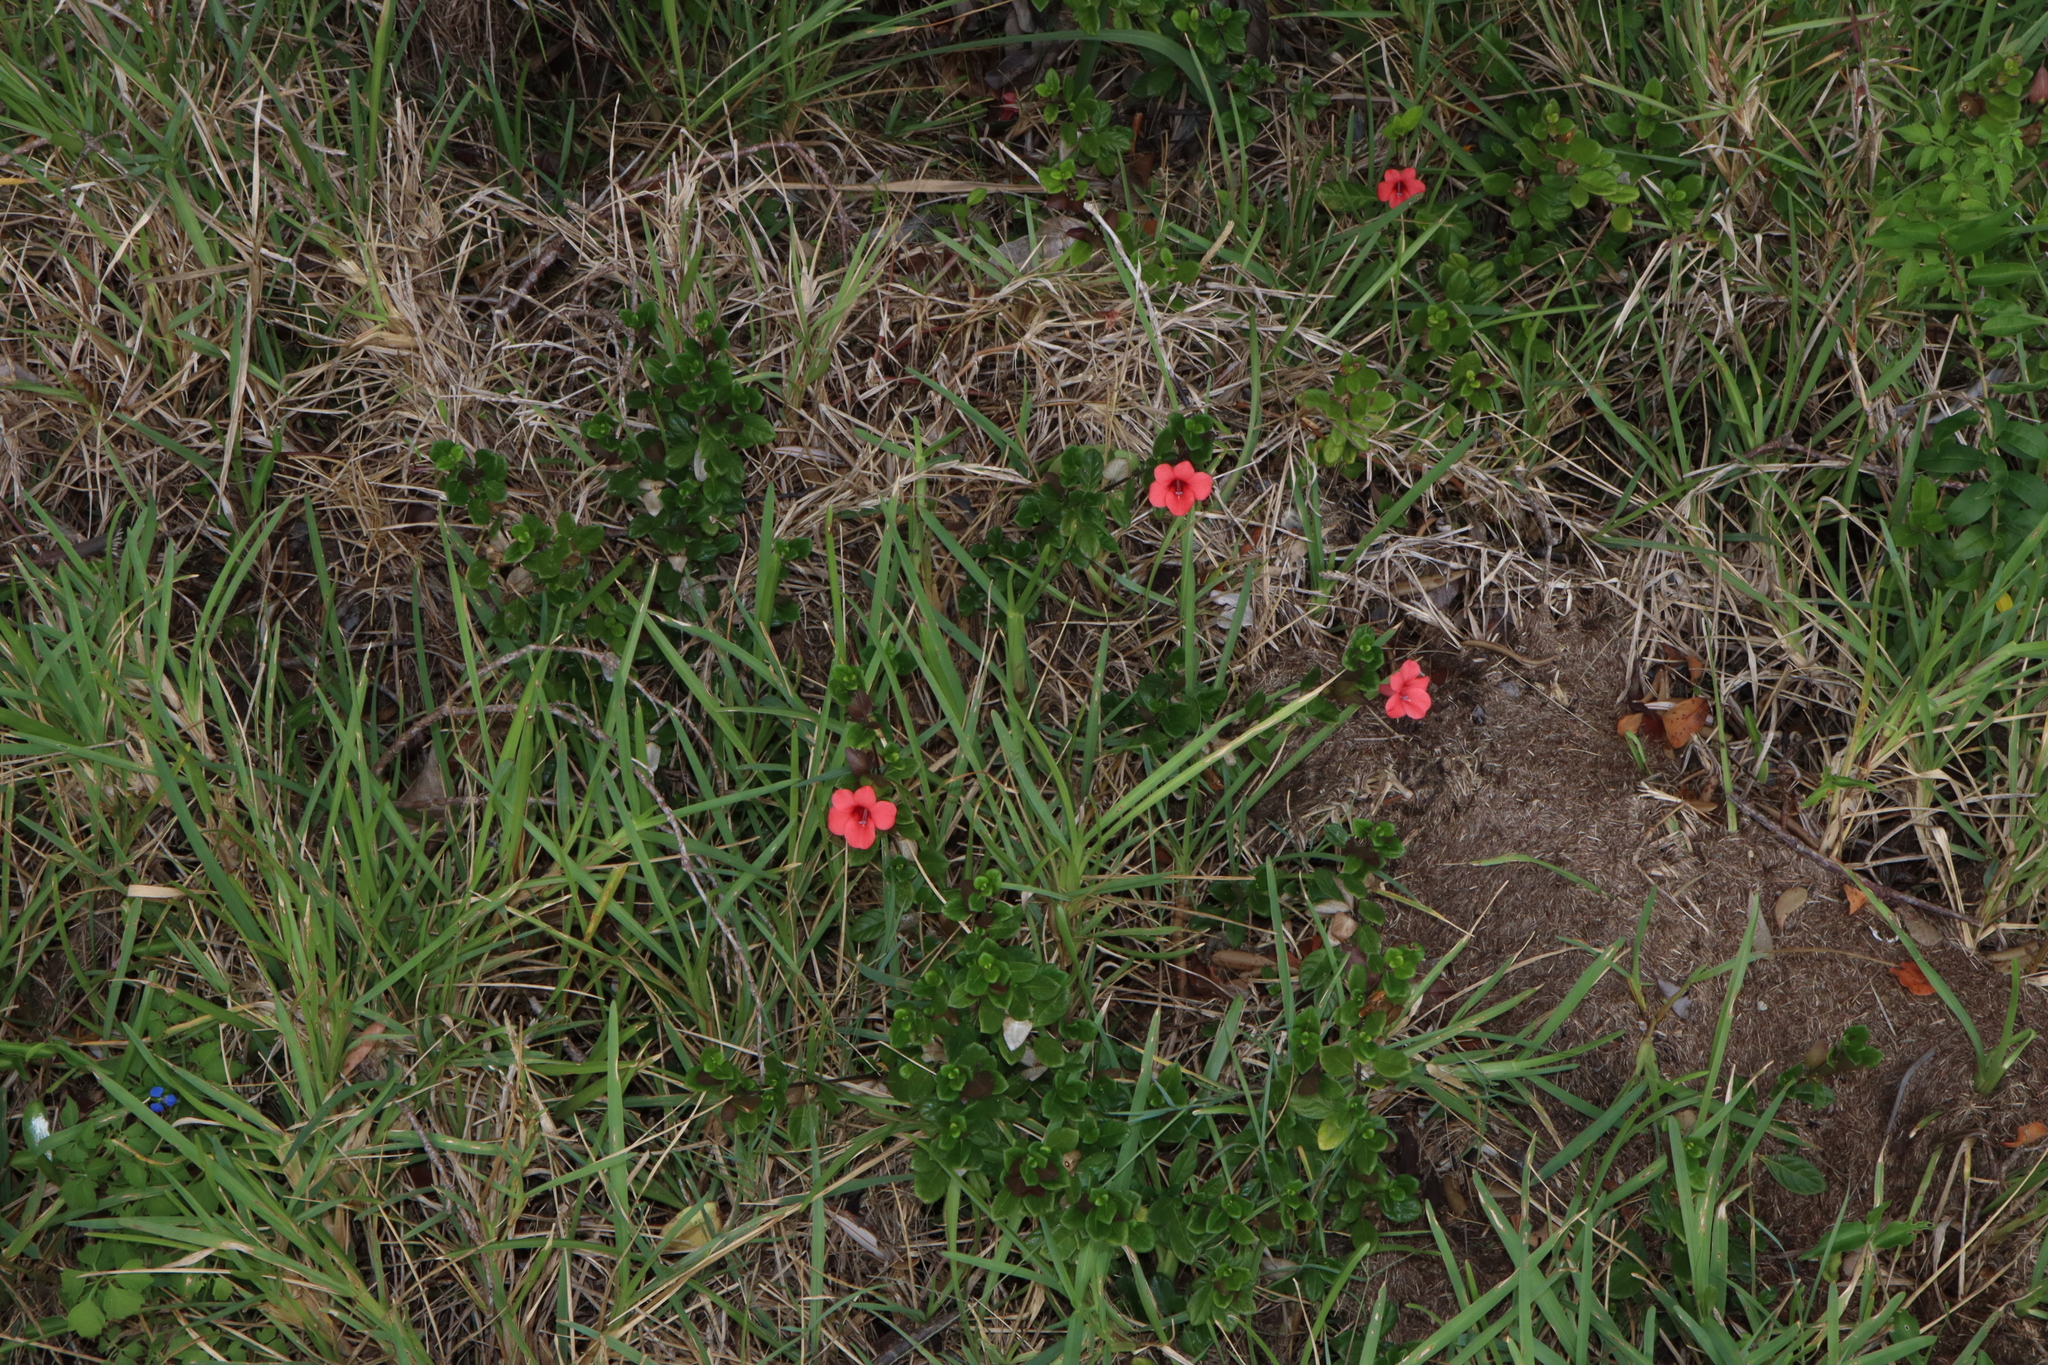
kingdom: Plantae
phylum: Tracheophyta
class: Magnoliopsida
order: Lamiales
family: Acanthaceae
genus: Barleria
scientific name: Barleria repens
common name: Pink-ruellia
